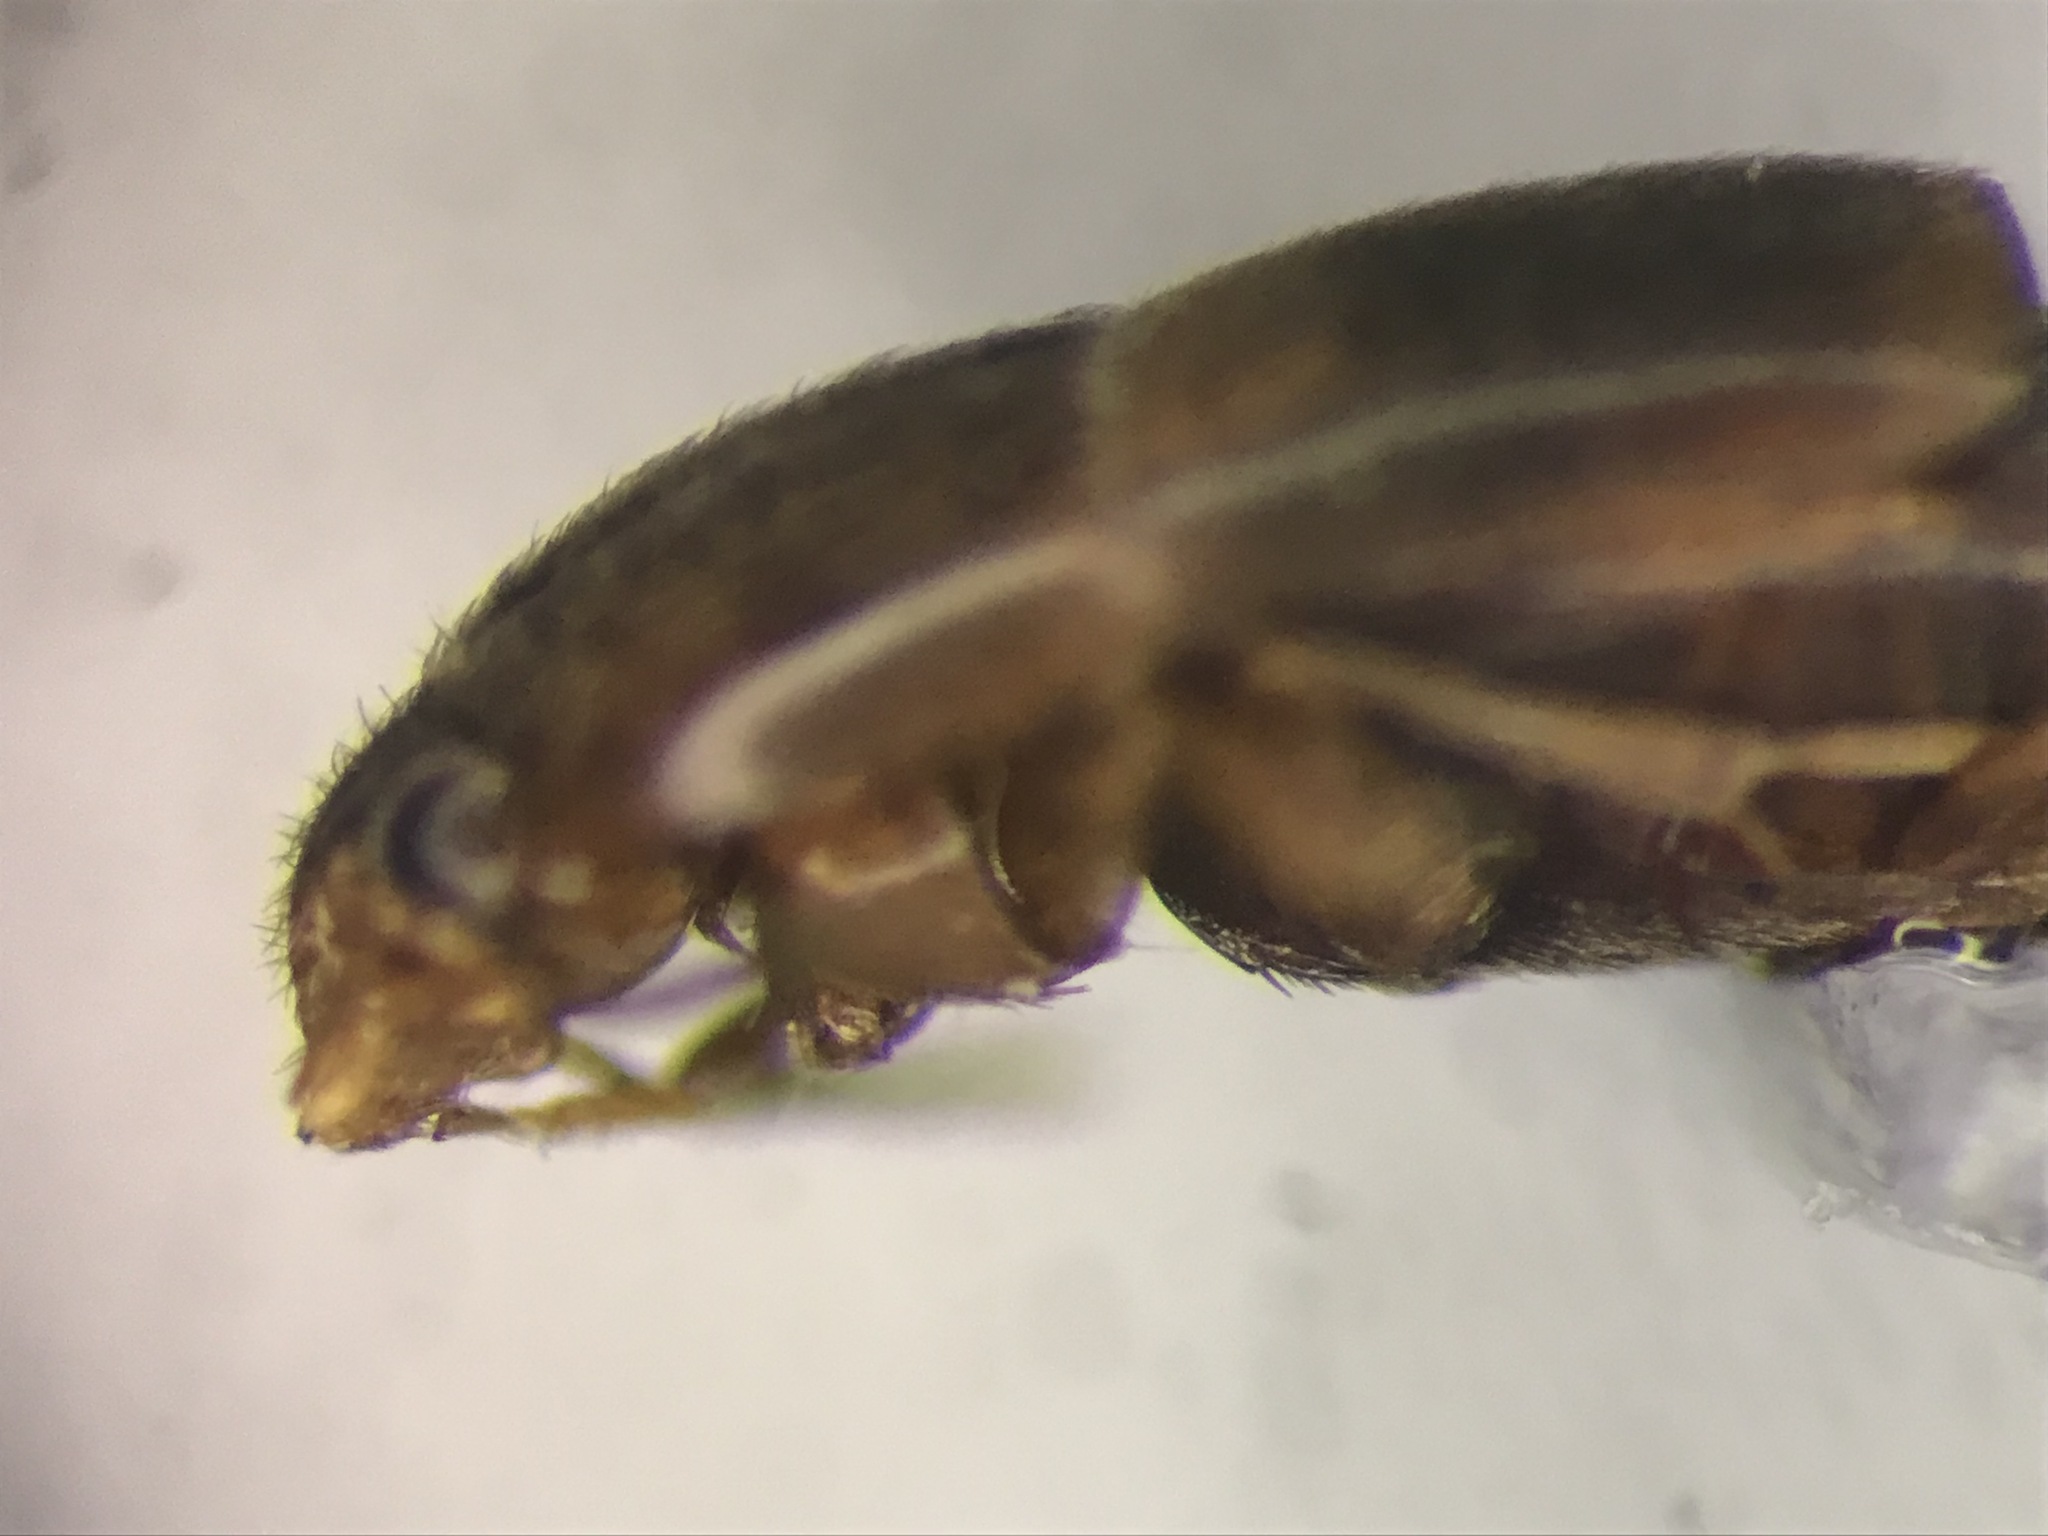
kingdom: Animalia
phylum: Arthropoda
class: Insecta
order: Coleoptera
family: Staphylinidae
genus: Sepedophilus
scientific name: Sepedophilus basalis
